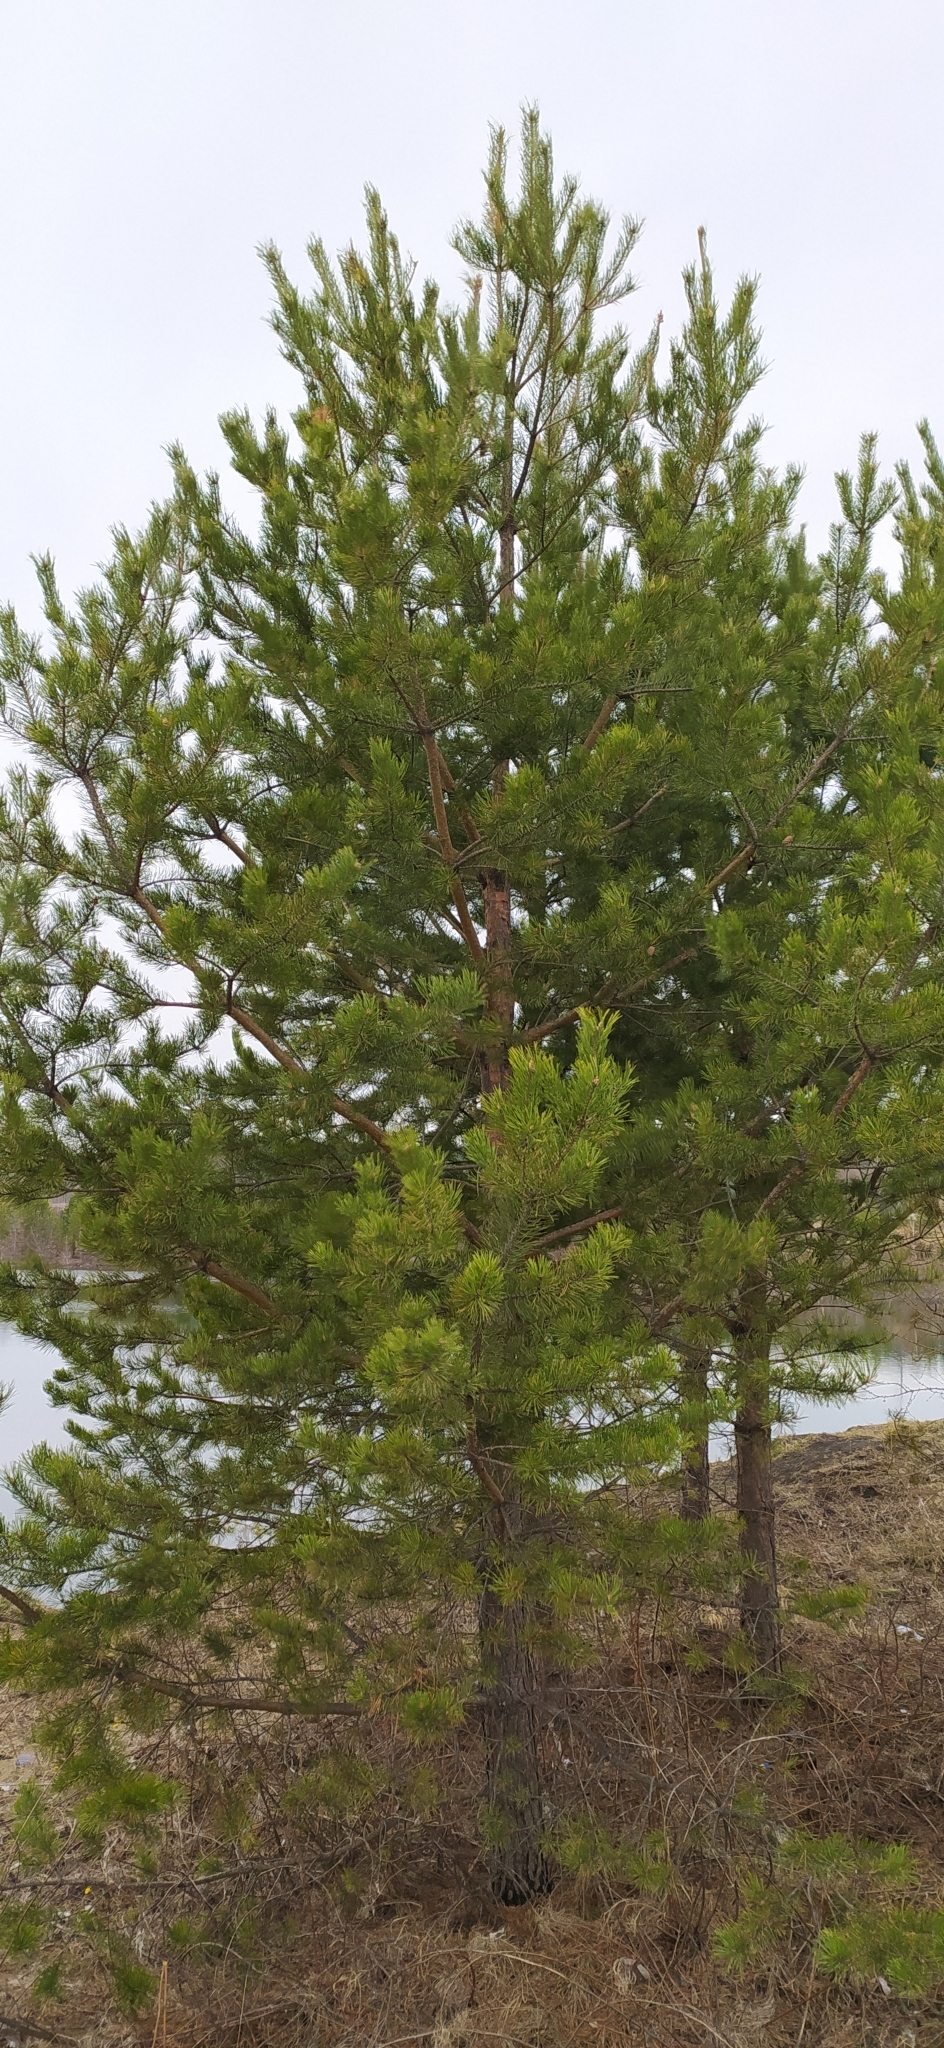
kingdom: Plantae
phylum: Tracheophyta
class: Pinopsida
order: Pinales
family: Pinaceae
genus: Pinus
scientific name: Pinus sylvestris
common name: Scots pine
